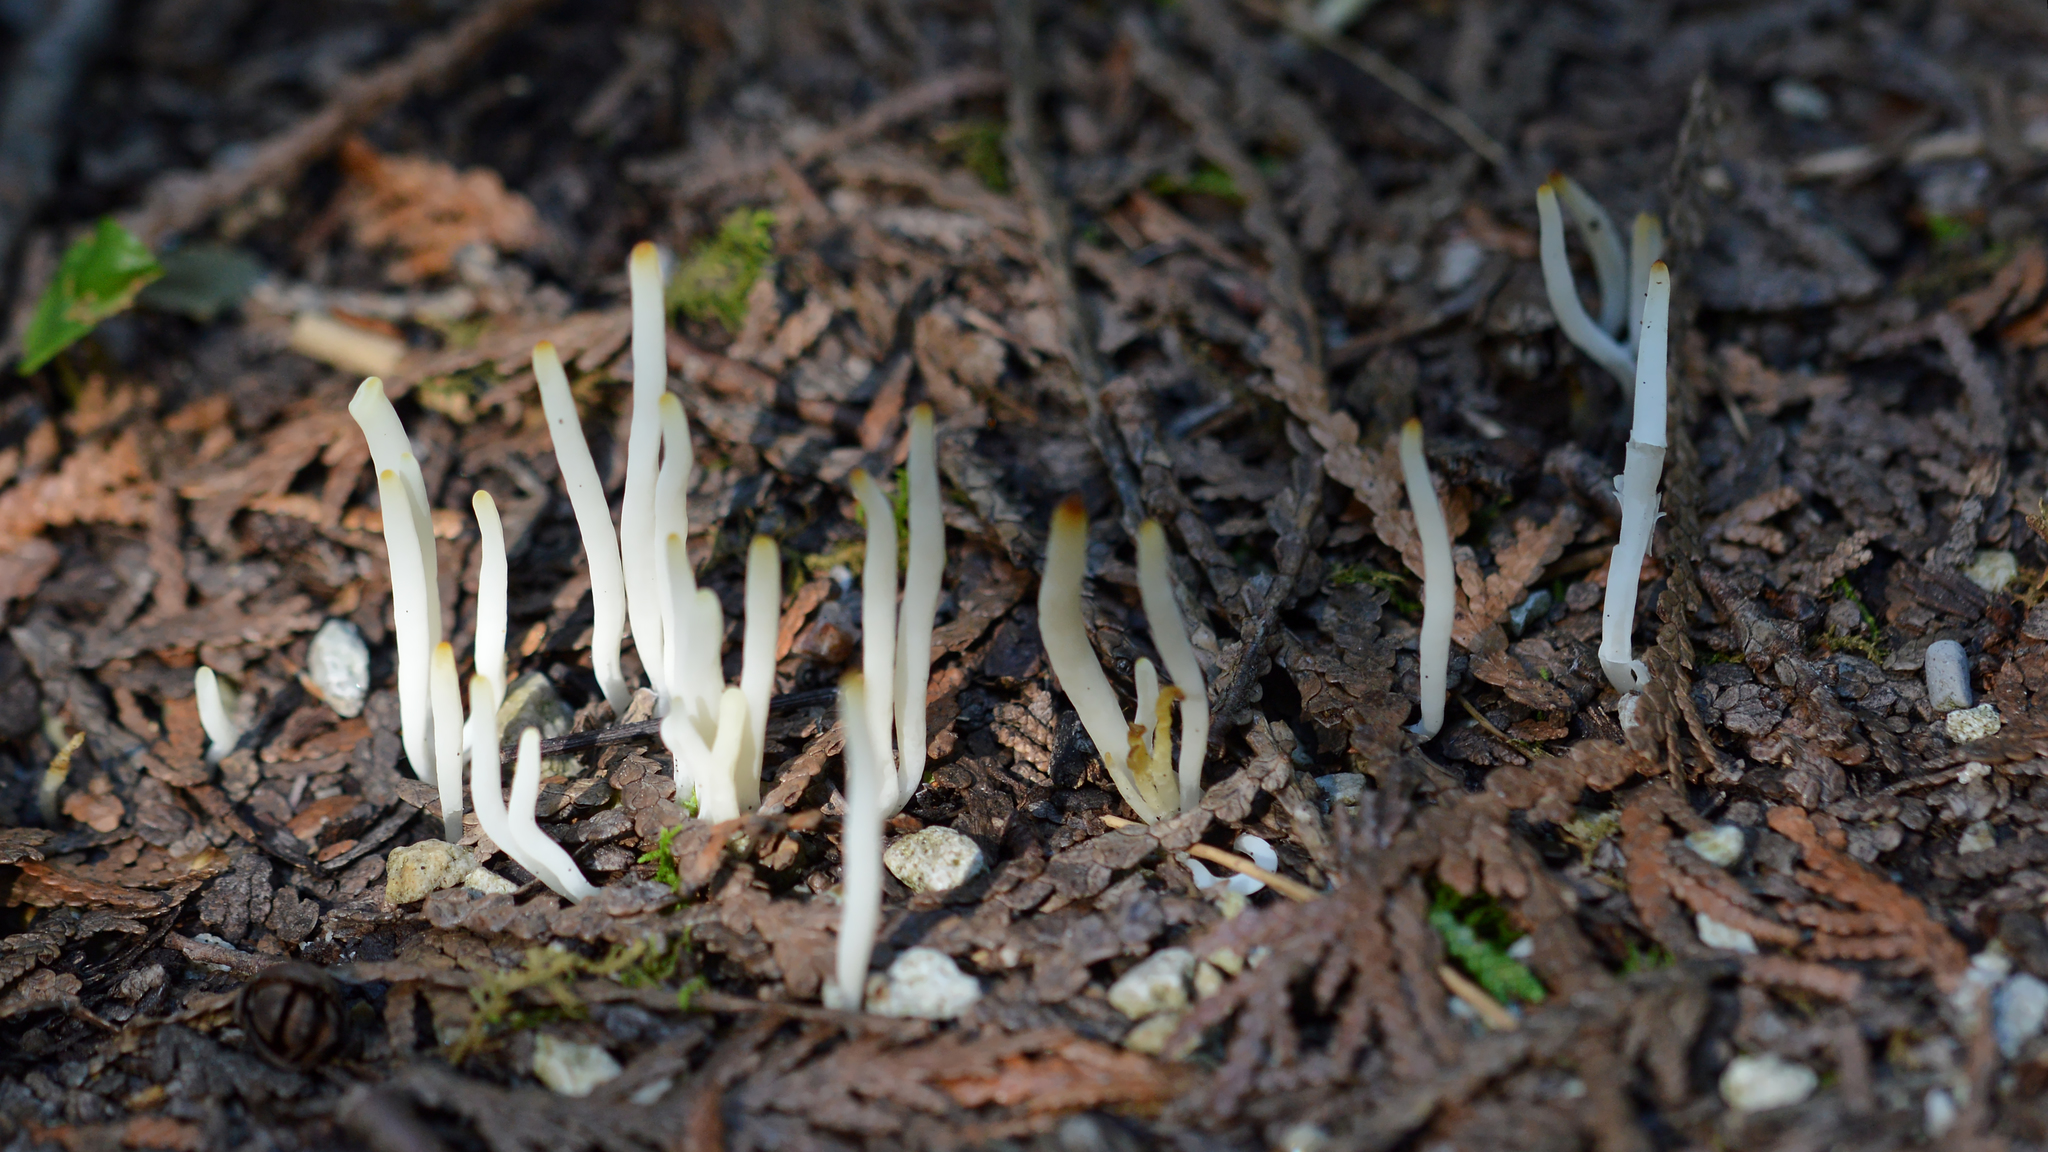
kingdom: Fungi
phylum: Basidiomycota
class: Agaricomycetes
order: Agaricales
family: Clavariaceae
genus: Clavaria
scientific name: Clavaria fragilis
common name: White spindles
